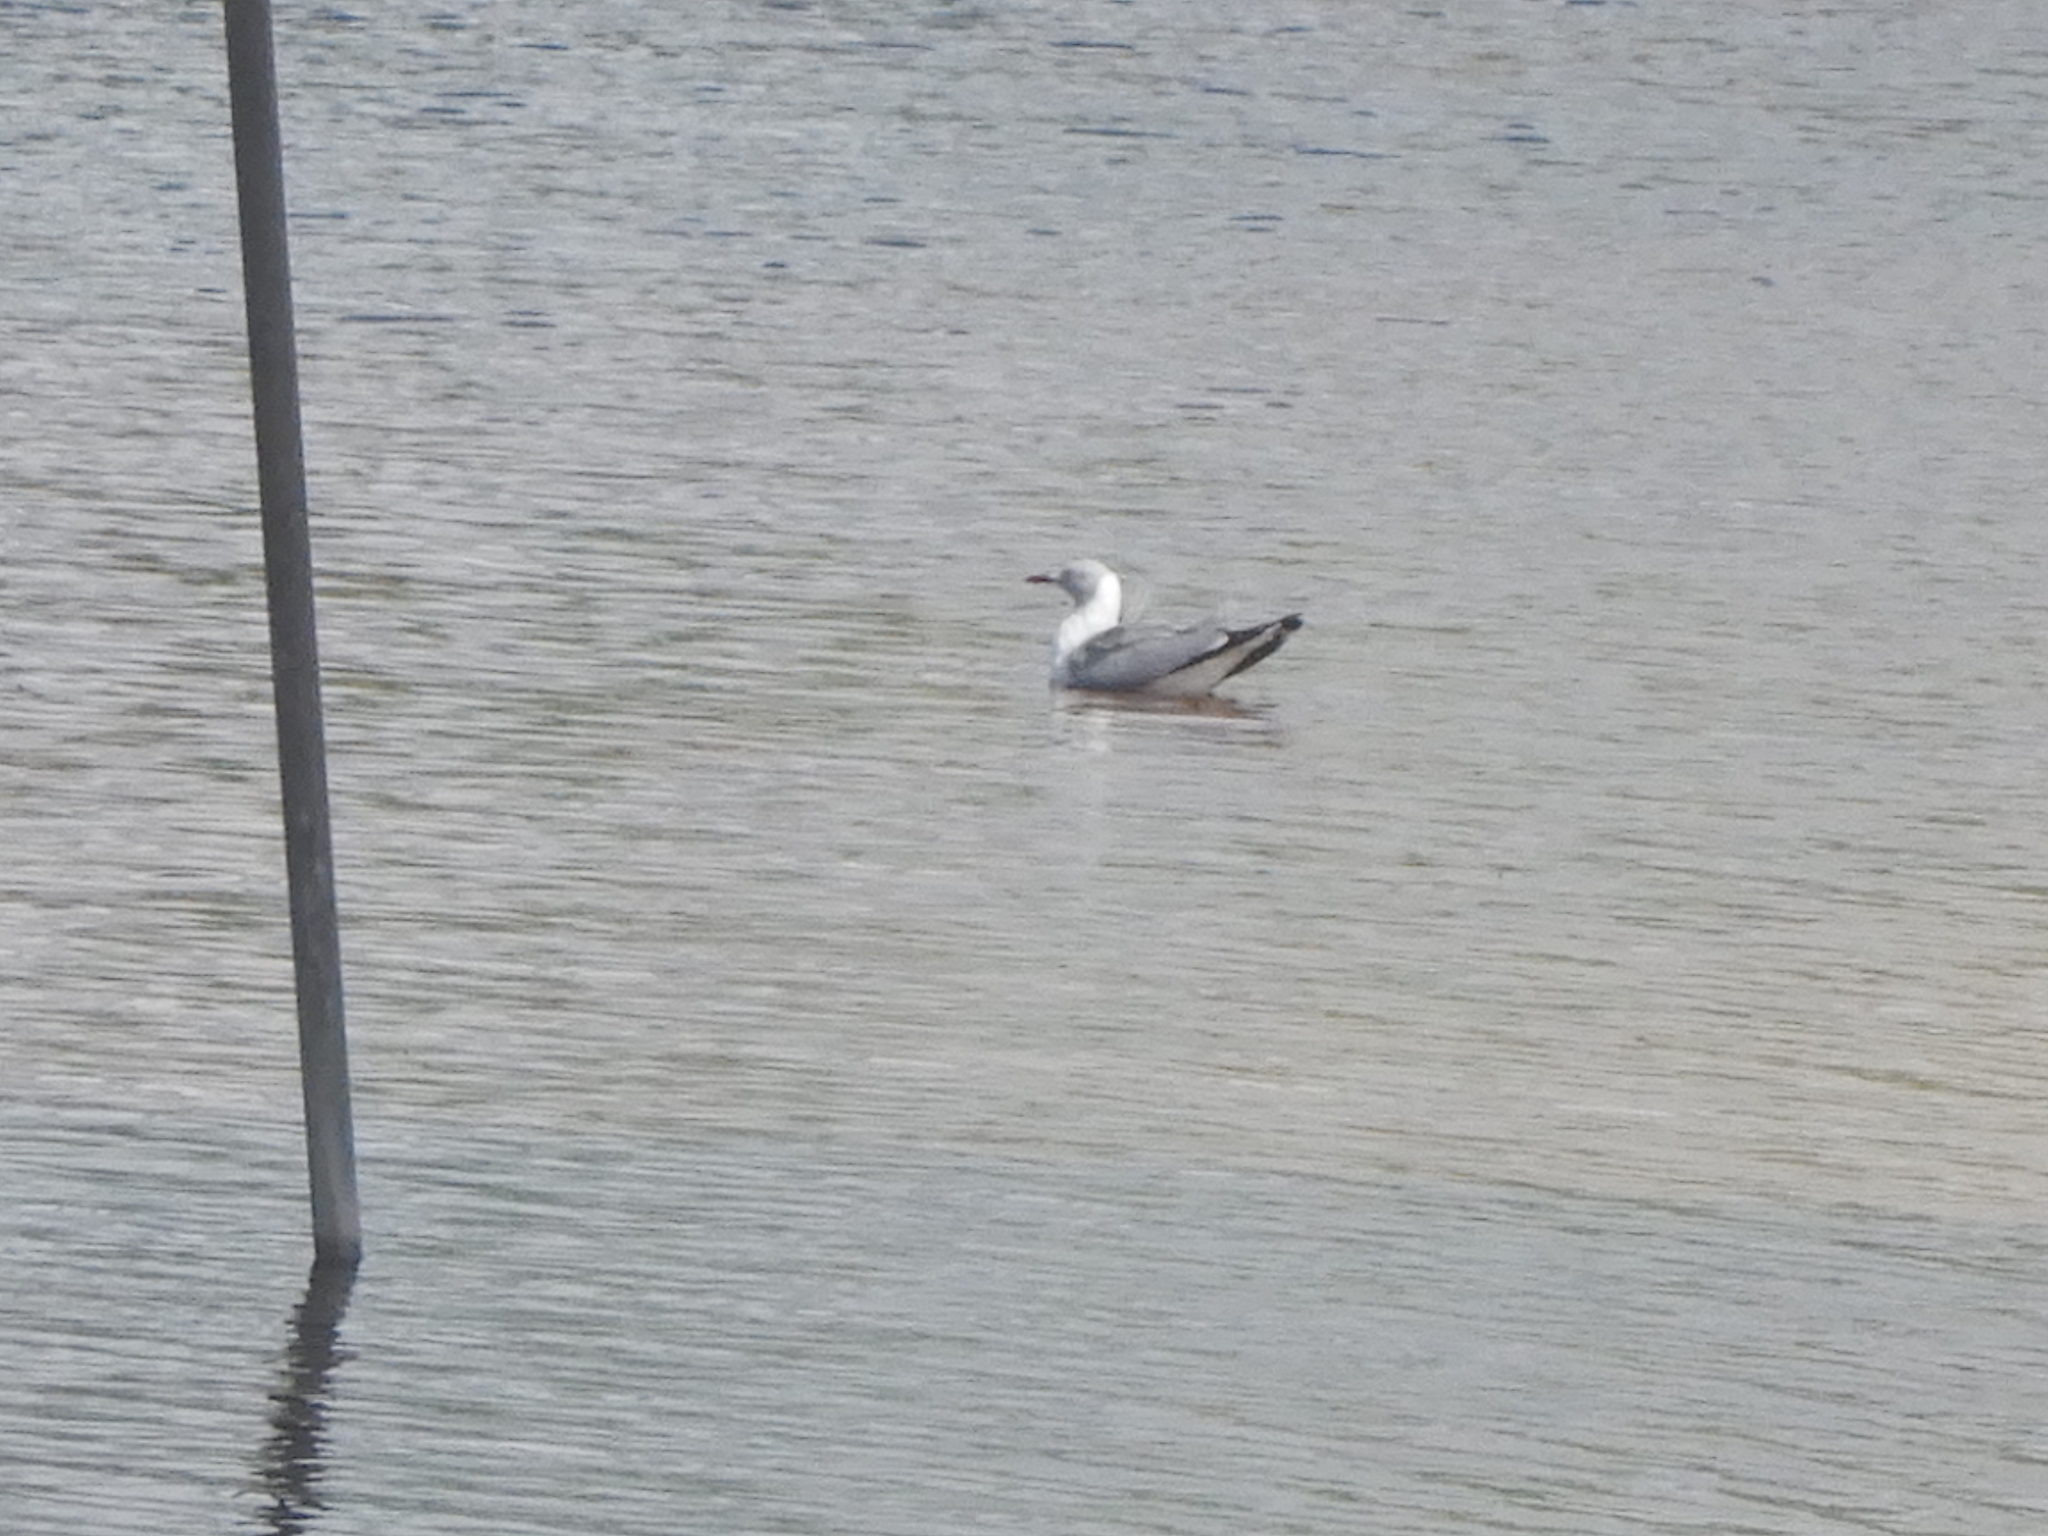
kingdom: Animalia
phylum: Chordata
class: Aves
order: Charadriiformes
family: Laridae
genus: Chroicocephalus
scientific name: Chroicocephalus cirrocephalus
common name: Grey-headed gull
